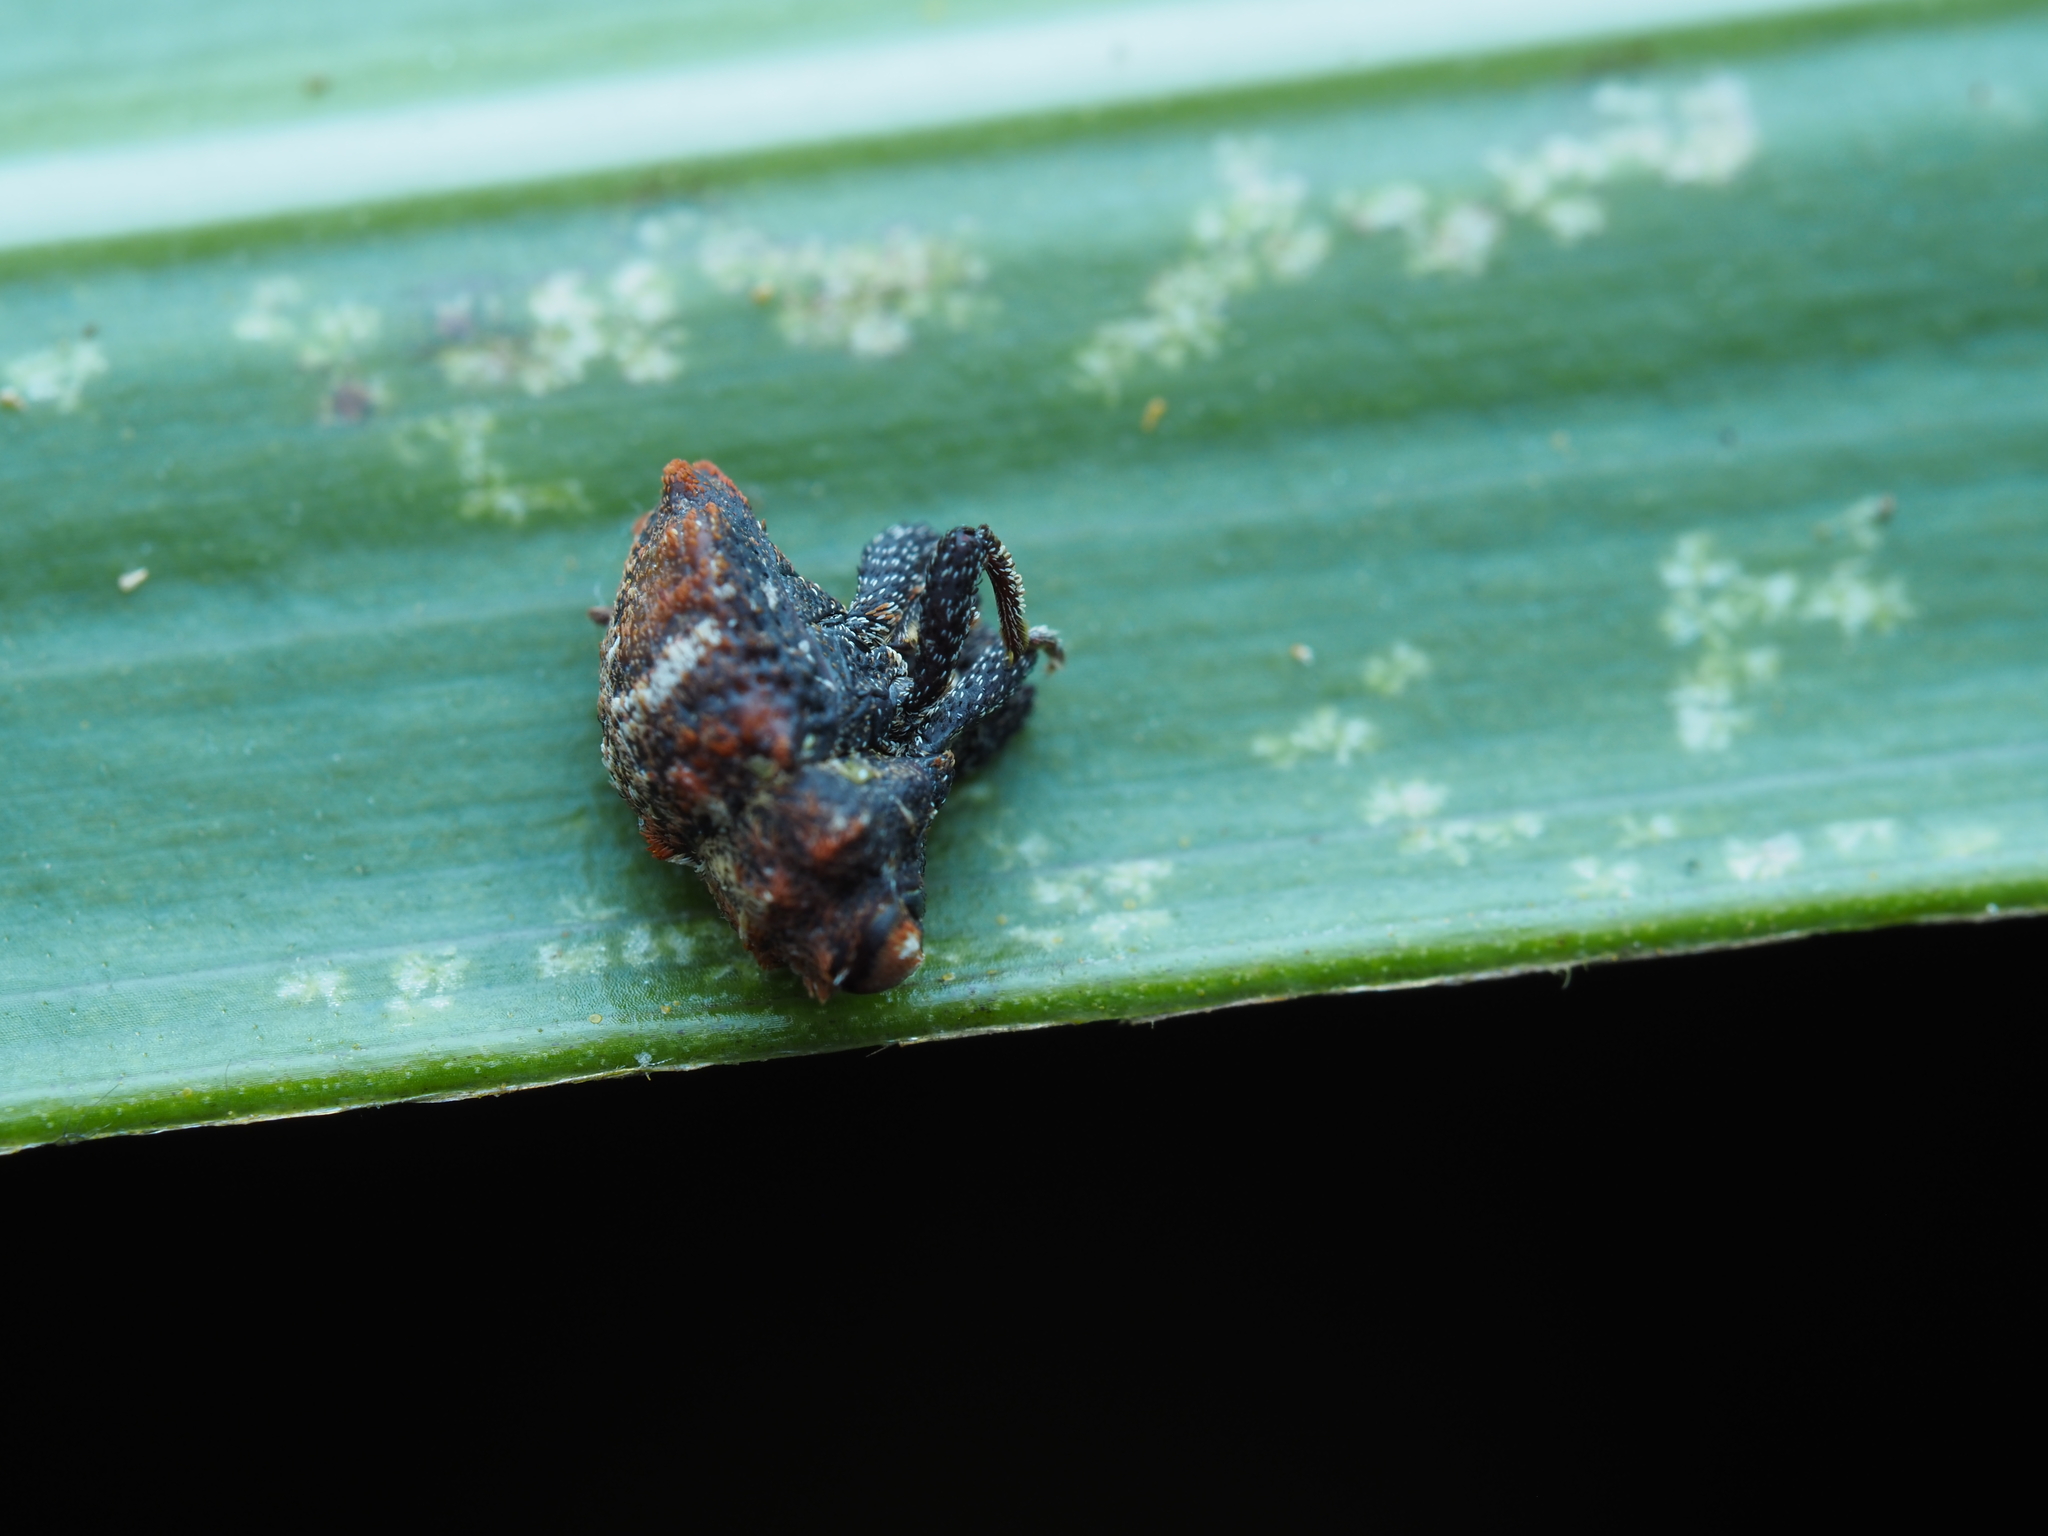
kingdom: Animalia
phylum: Arthropoda
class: Insecta
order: Coleoptera
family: Curculionidae
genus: Sympedius
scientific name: Sympedius ferrugatus
